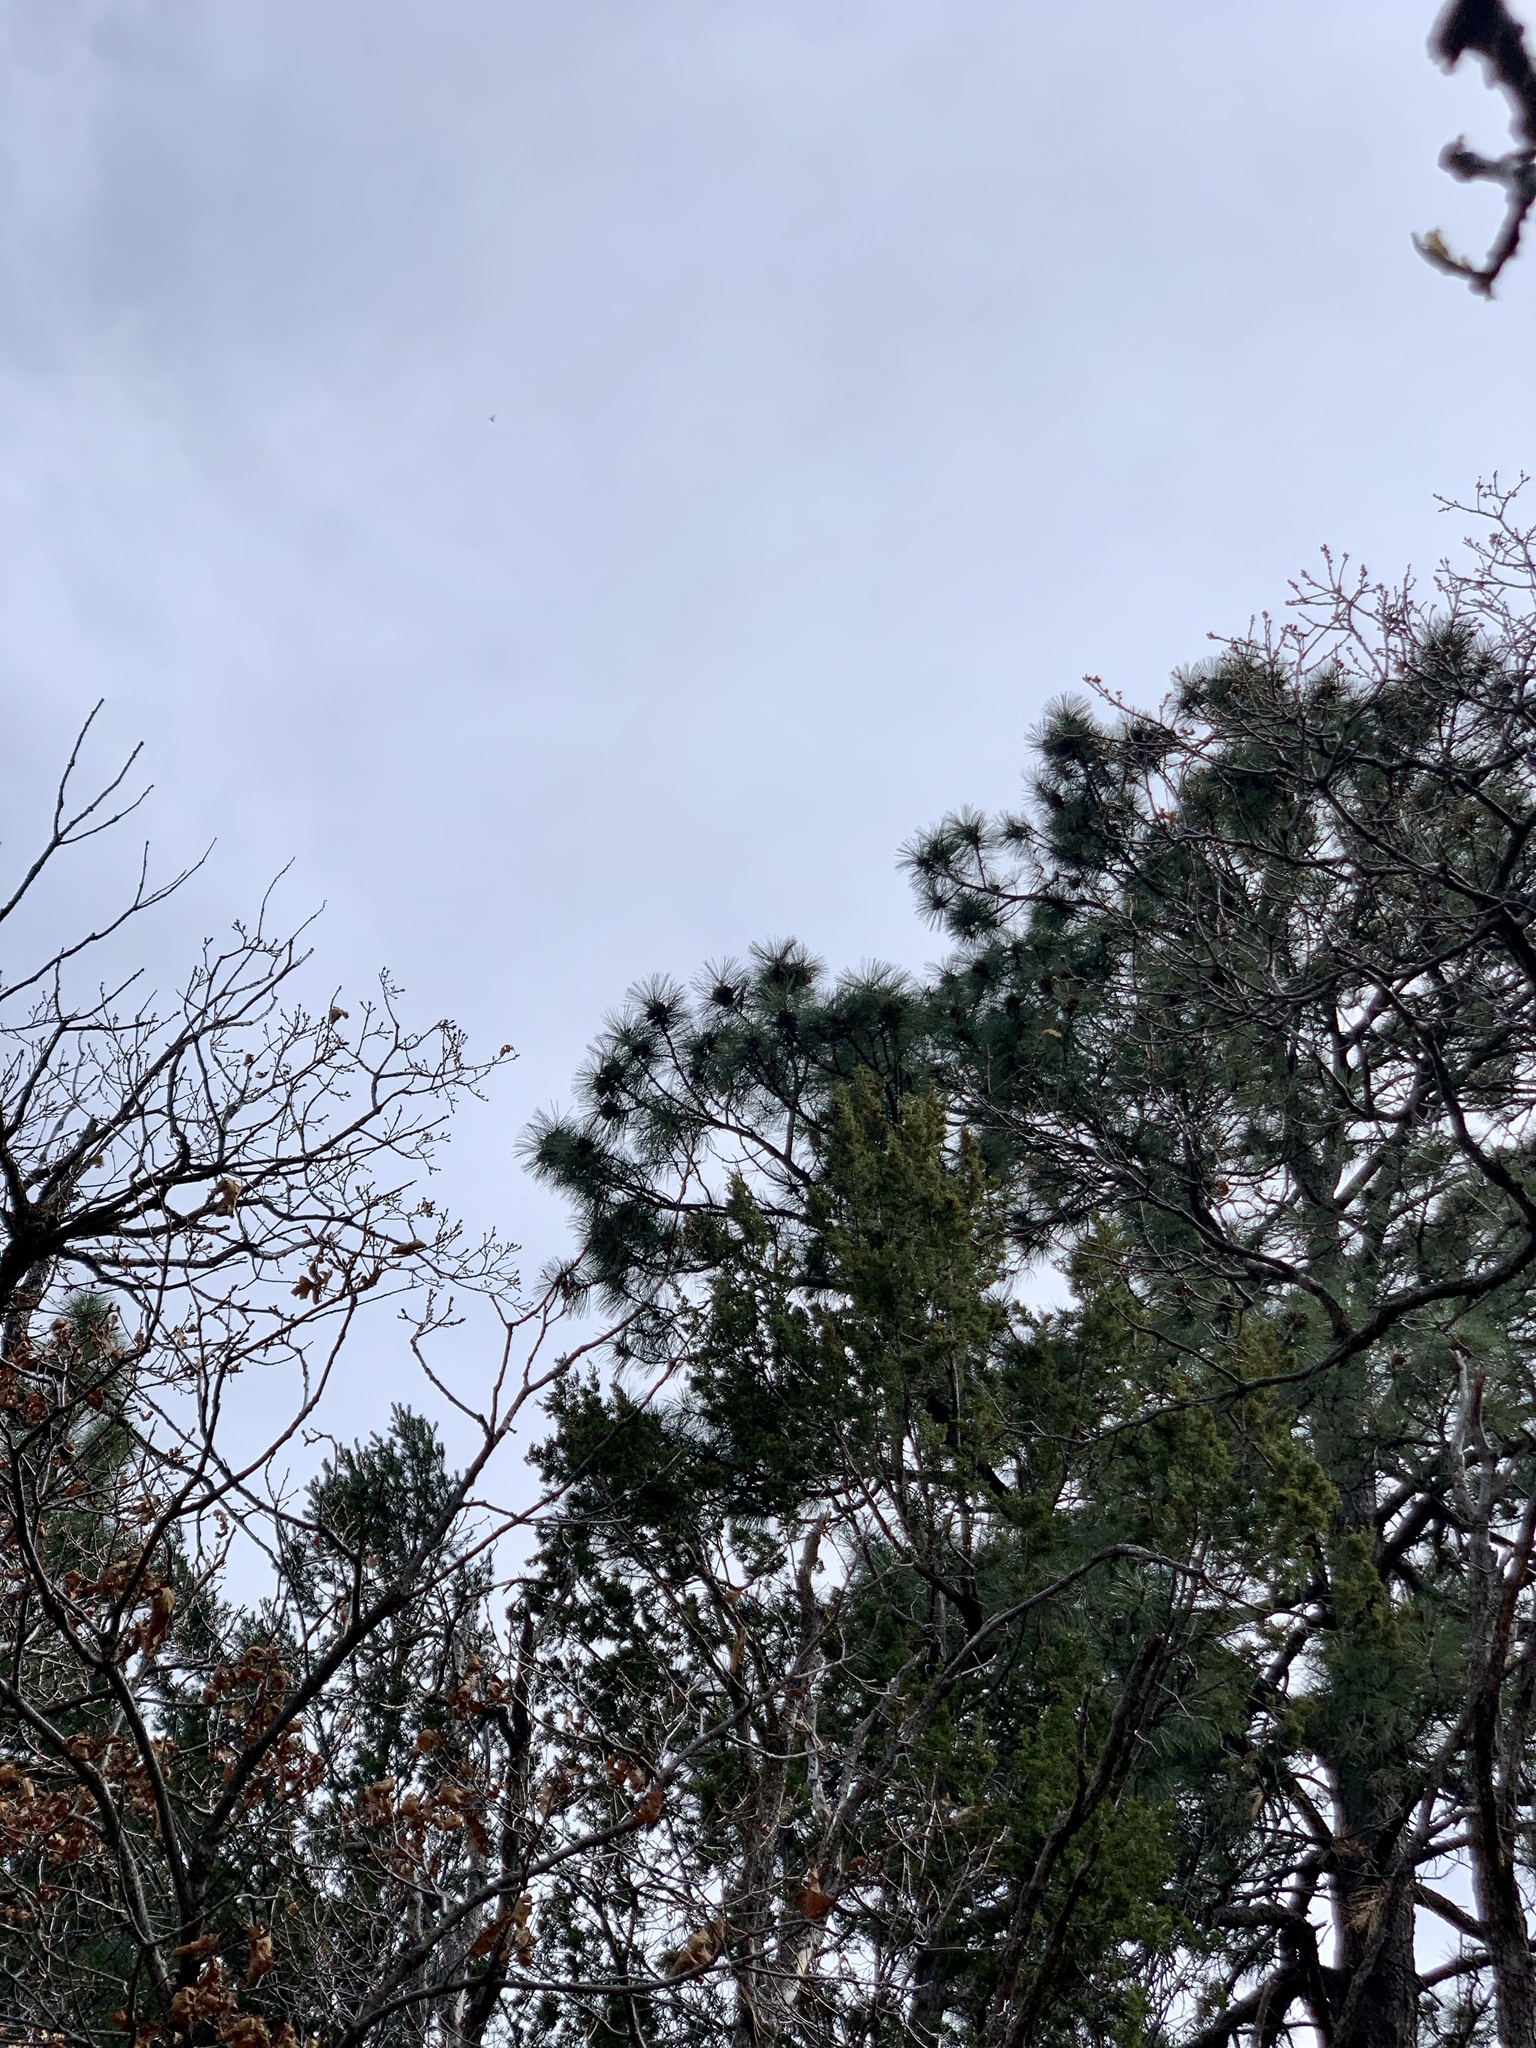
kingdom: Plantae
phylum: Tracheophyta
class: Pinopsida
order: Pinales
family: Pinaceae
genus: Pinus
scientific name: Pinus ponderosa
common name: Western yellow-pine
